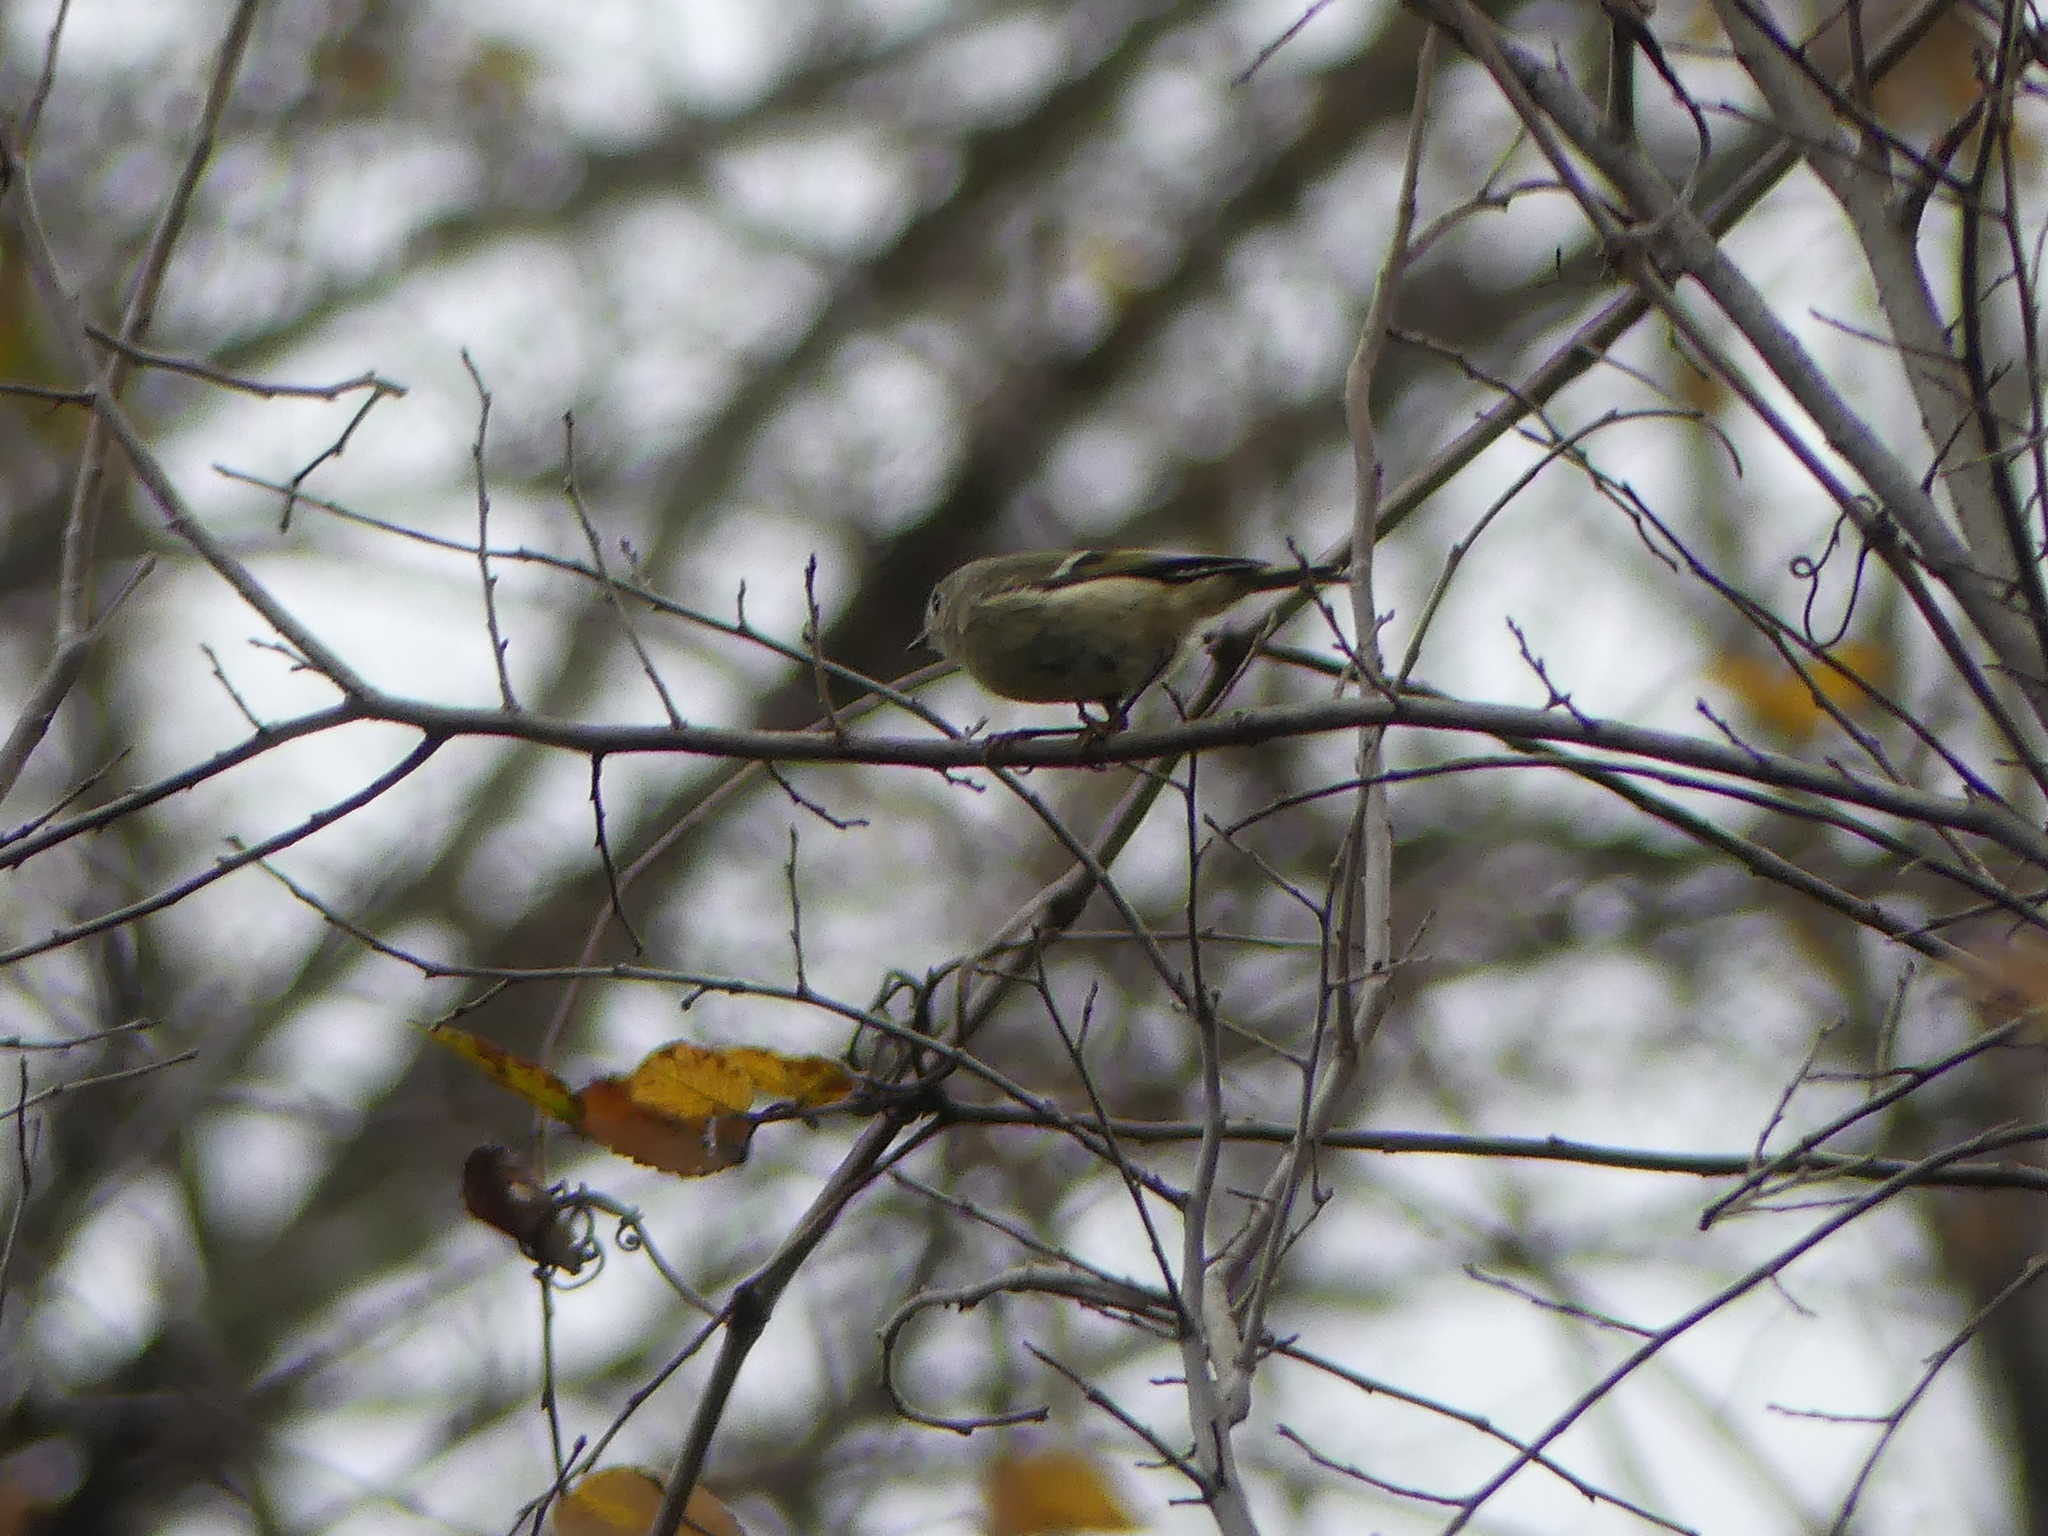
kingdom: Animalia
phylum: Chordata
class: Aves
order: Passeriformes
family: Regulidae
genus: Regulus
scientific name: Regulus calendula
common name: Ruby-crowned kinglet
